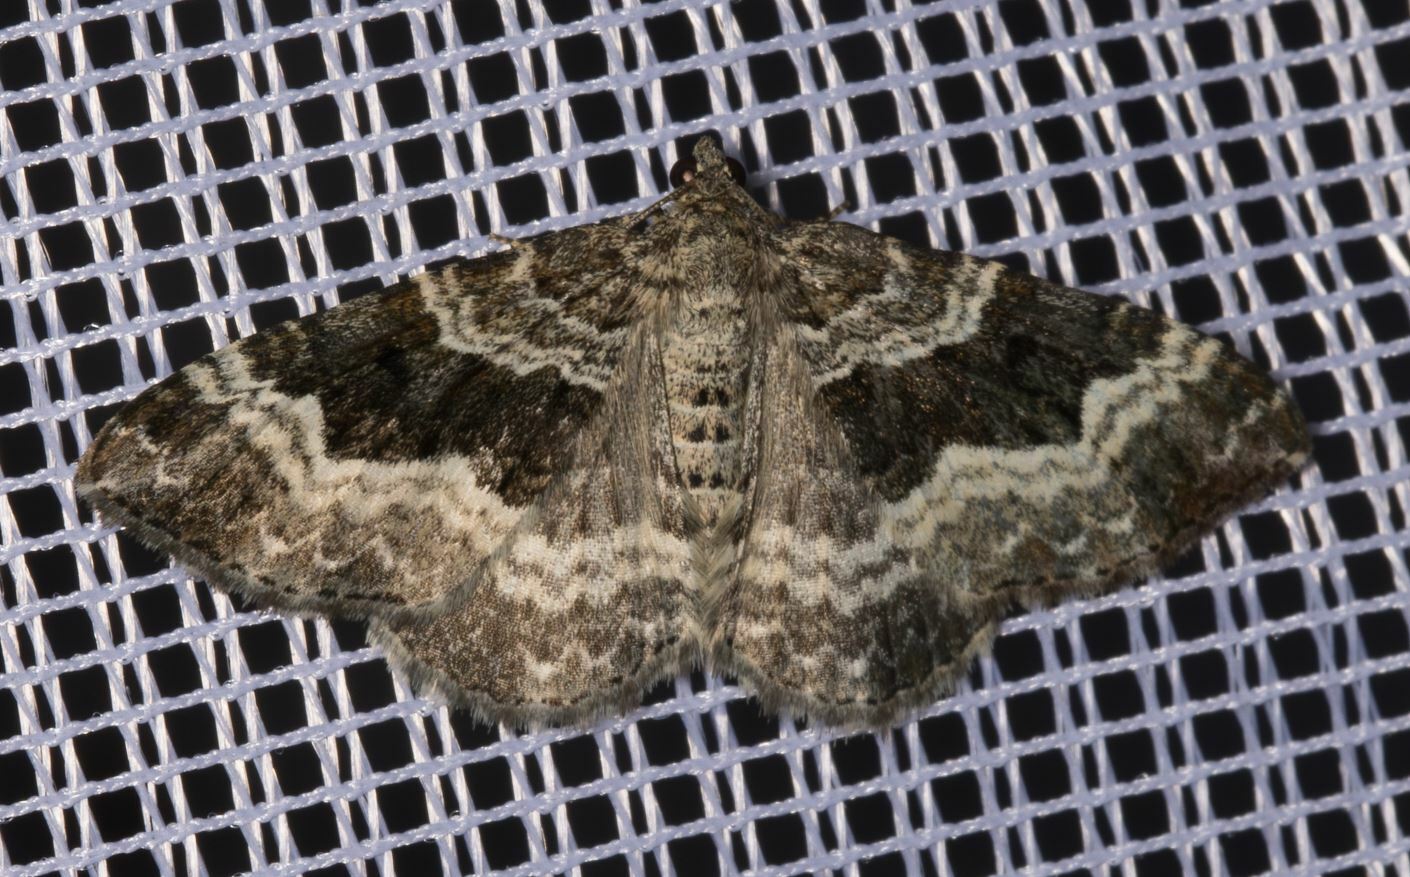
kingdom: Animalia
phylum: Arthropoda
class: Insecta
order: Lepidoptera
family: Geometridae
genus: Epirrhoe
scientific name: Epirrhoe alternata
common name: Common carpet
